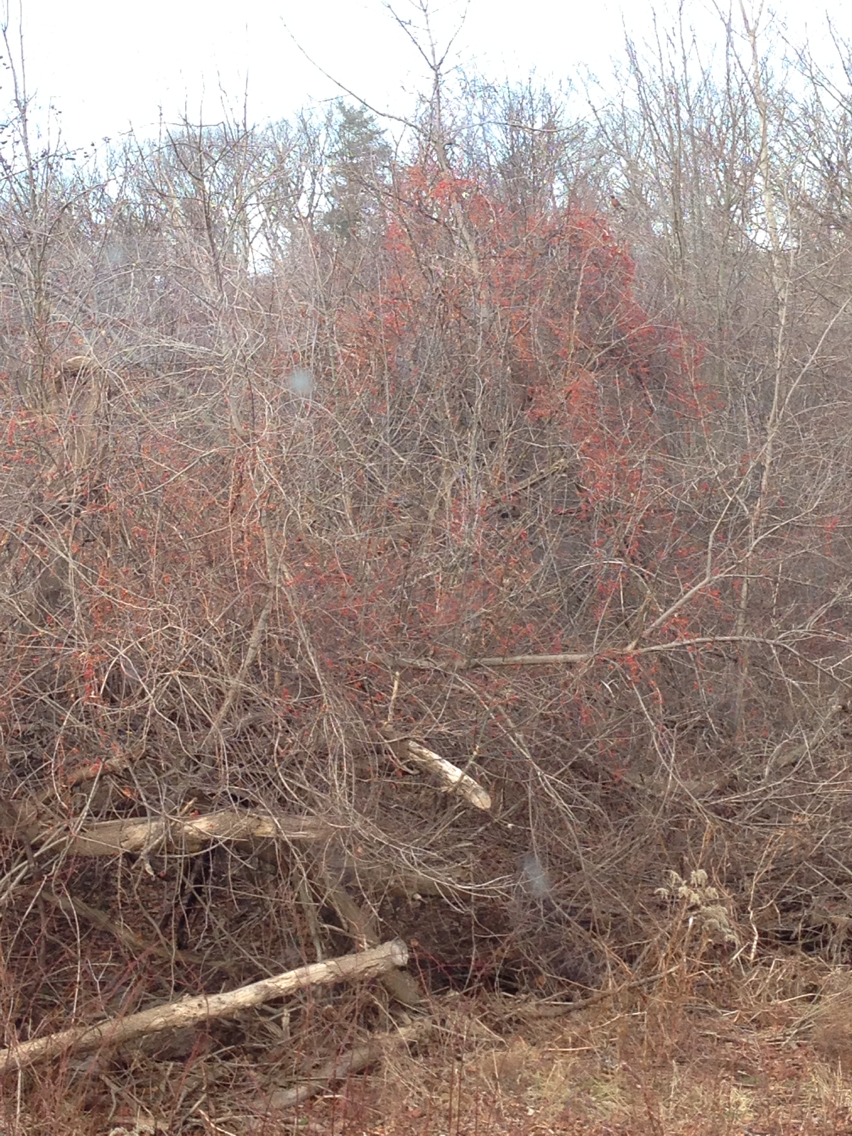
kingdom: Plantae
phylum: Tracheophyta
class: Magnoliopsida
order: Celastrales
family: Celastraceae
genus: Celastrus
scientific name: Celastrus orbiculatus
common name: Oriental bittersweet
